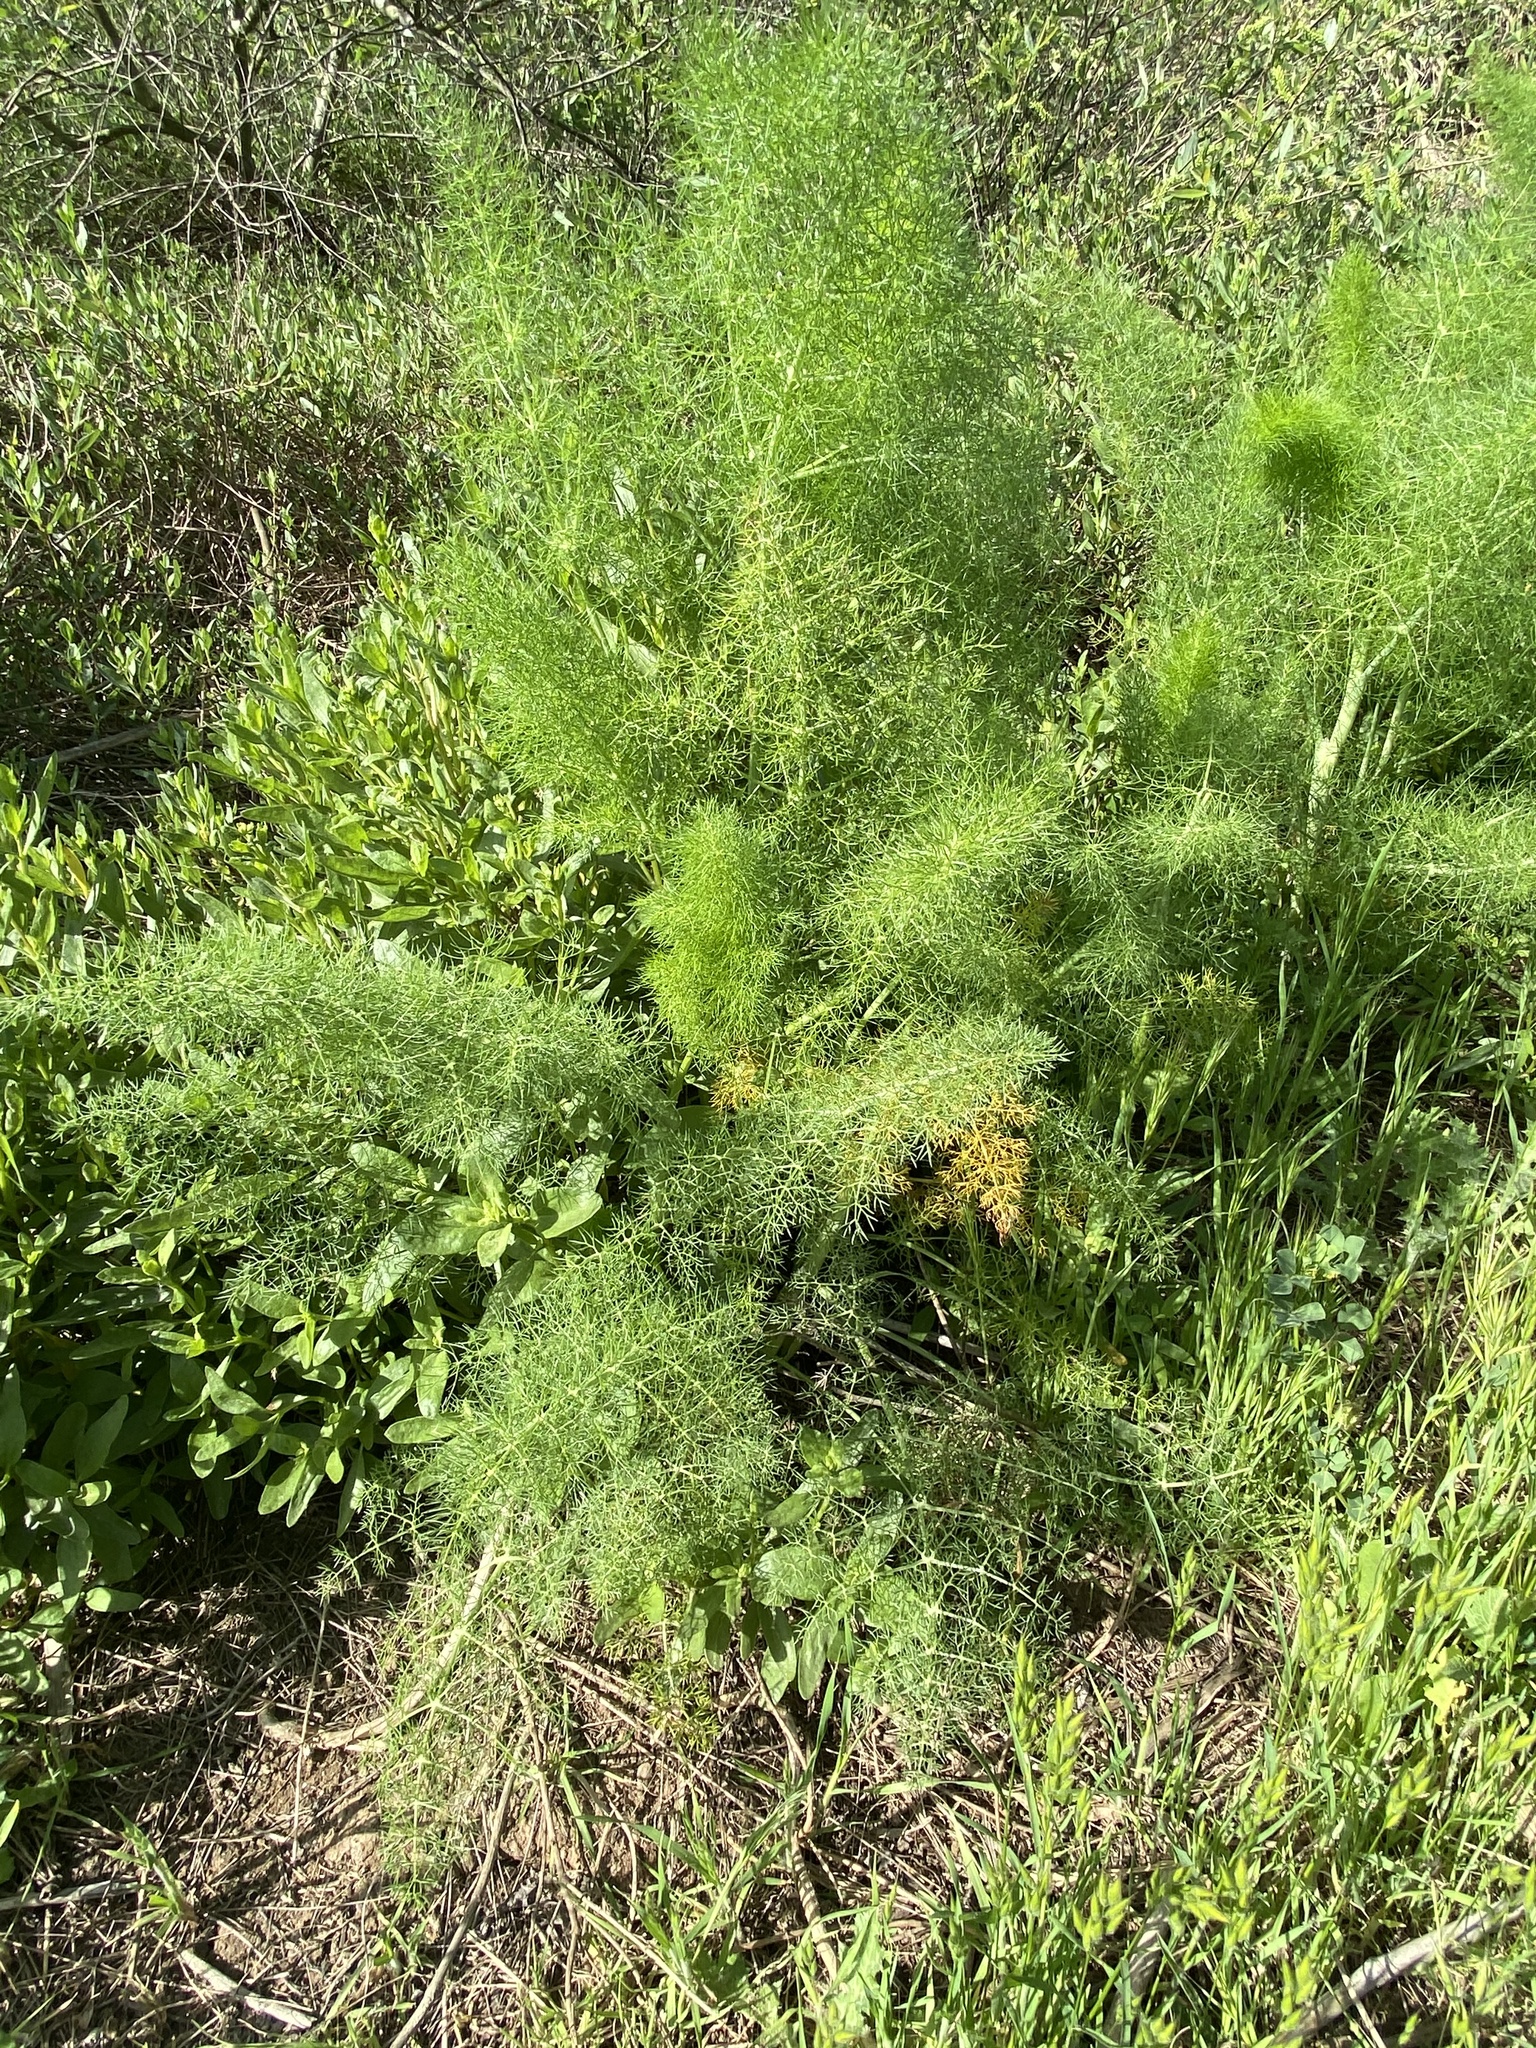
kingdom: Plantae
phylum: Tracheophyta
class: Magnoliopsida
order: Apiales
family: Apiaceae
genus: Foeniculum
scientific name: Foeniculum vulgare
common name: Fennel
